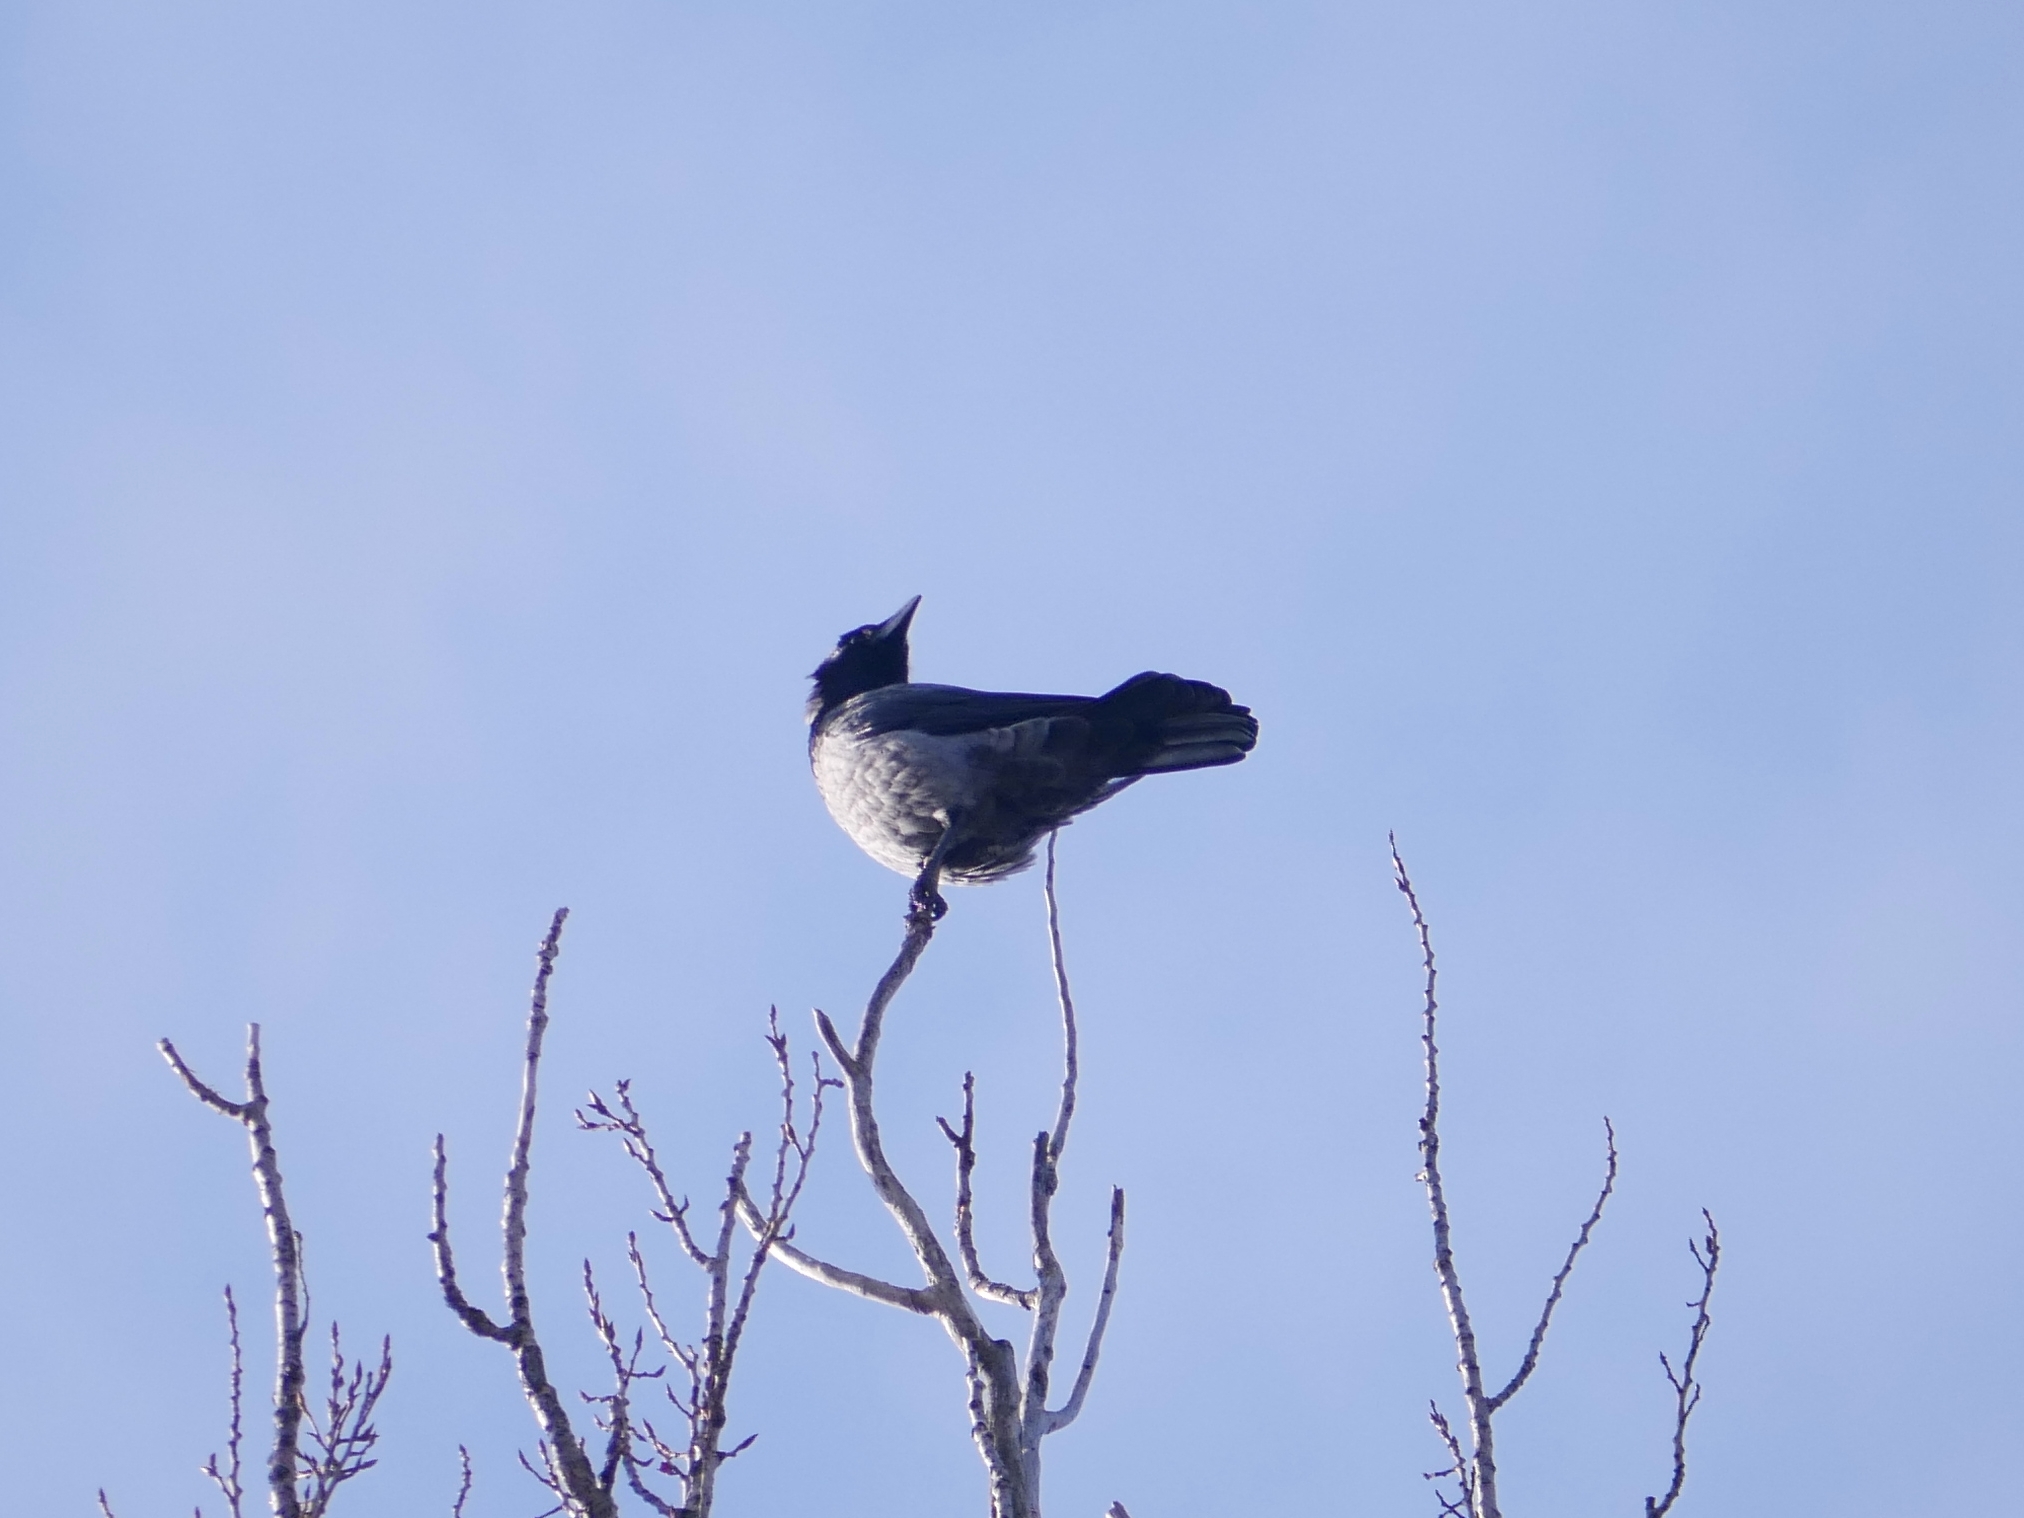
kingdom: Animalia
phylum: Chordata
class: Aves
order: Passeriformes
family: Corvidae
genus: Corvus
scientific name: Corvus cornix
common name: Hooded crow
